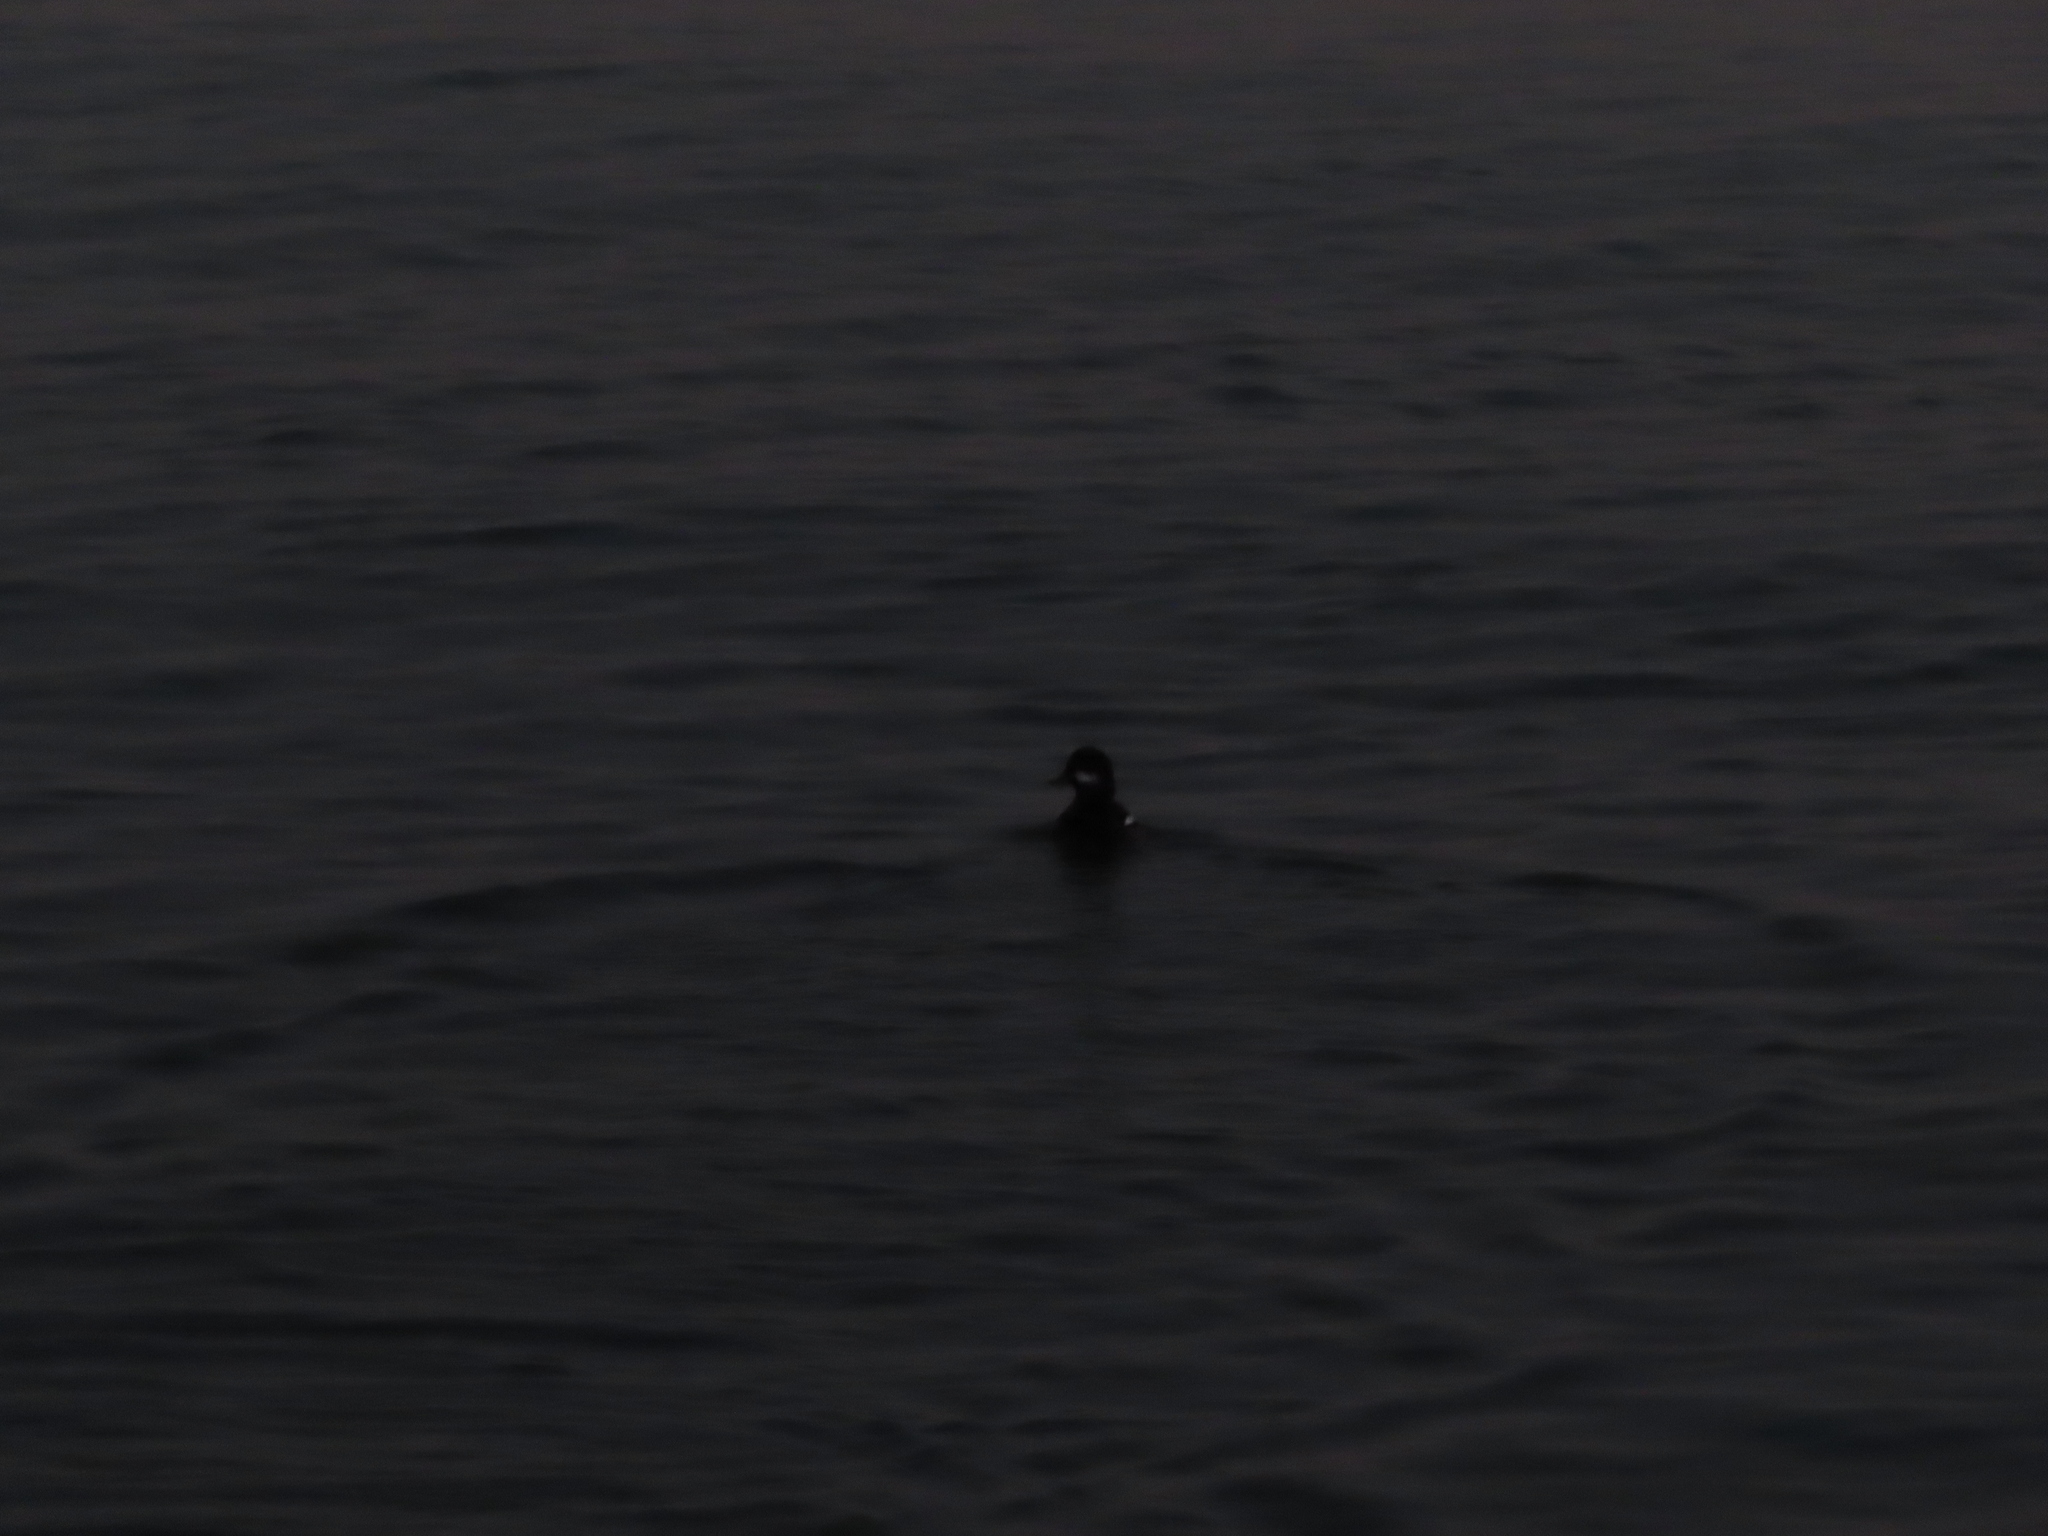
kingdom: Animalia
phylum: Chordata
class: Aves
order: Anseriformes
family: Anatidae
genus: Bucephala
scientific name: Bucephala albeola
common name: Bufflehead
